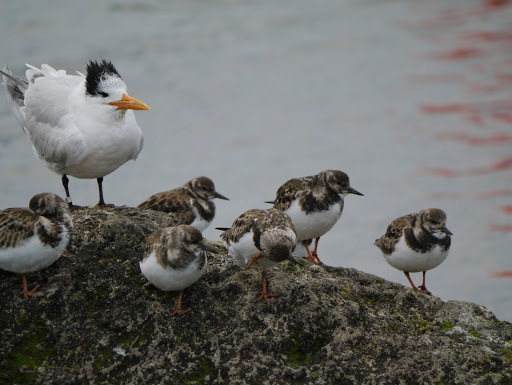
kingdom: Animalia
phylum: Chordata
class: Aves
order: Charadriiformes
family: Scolopacidae
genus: Arenaria
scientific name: Arenaria interpres
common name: Ruddy turnstone
